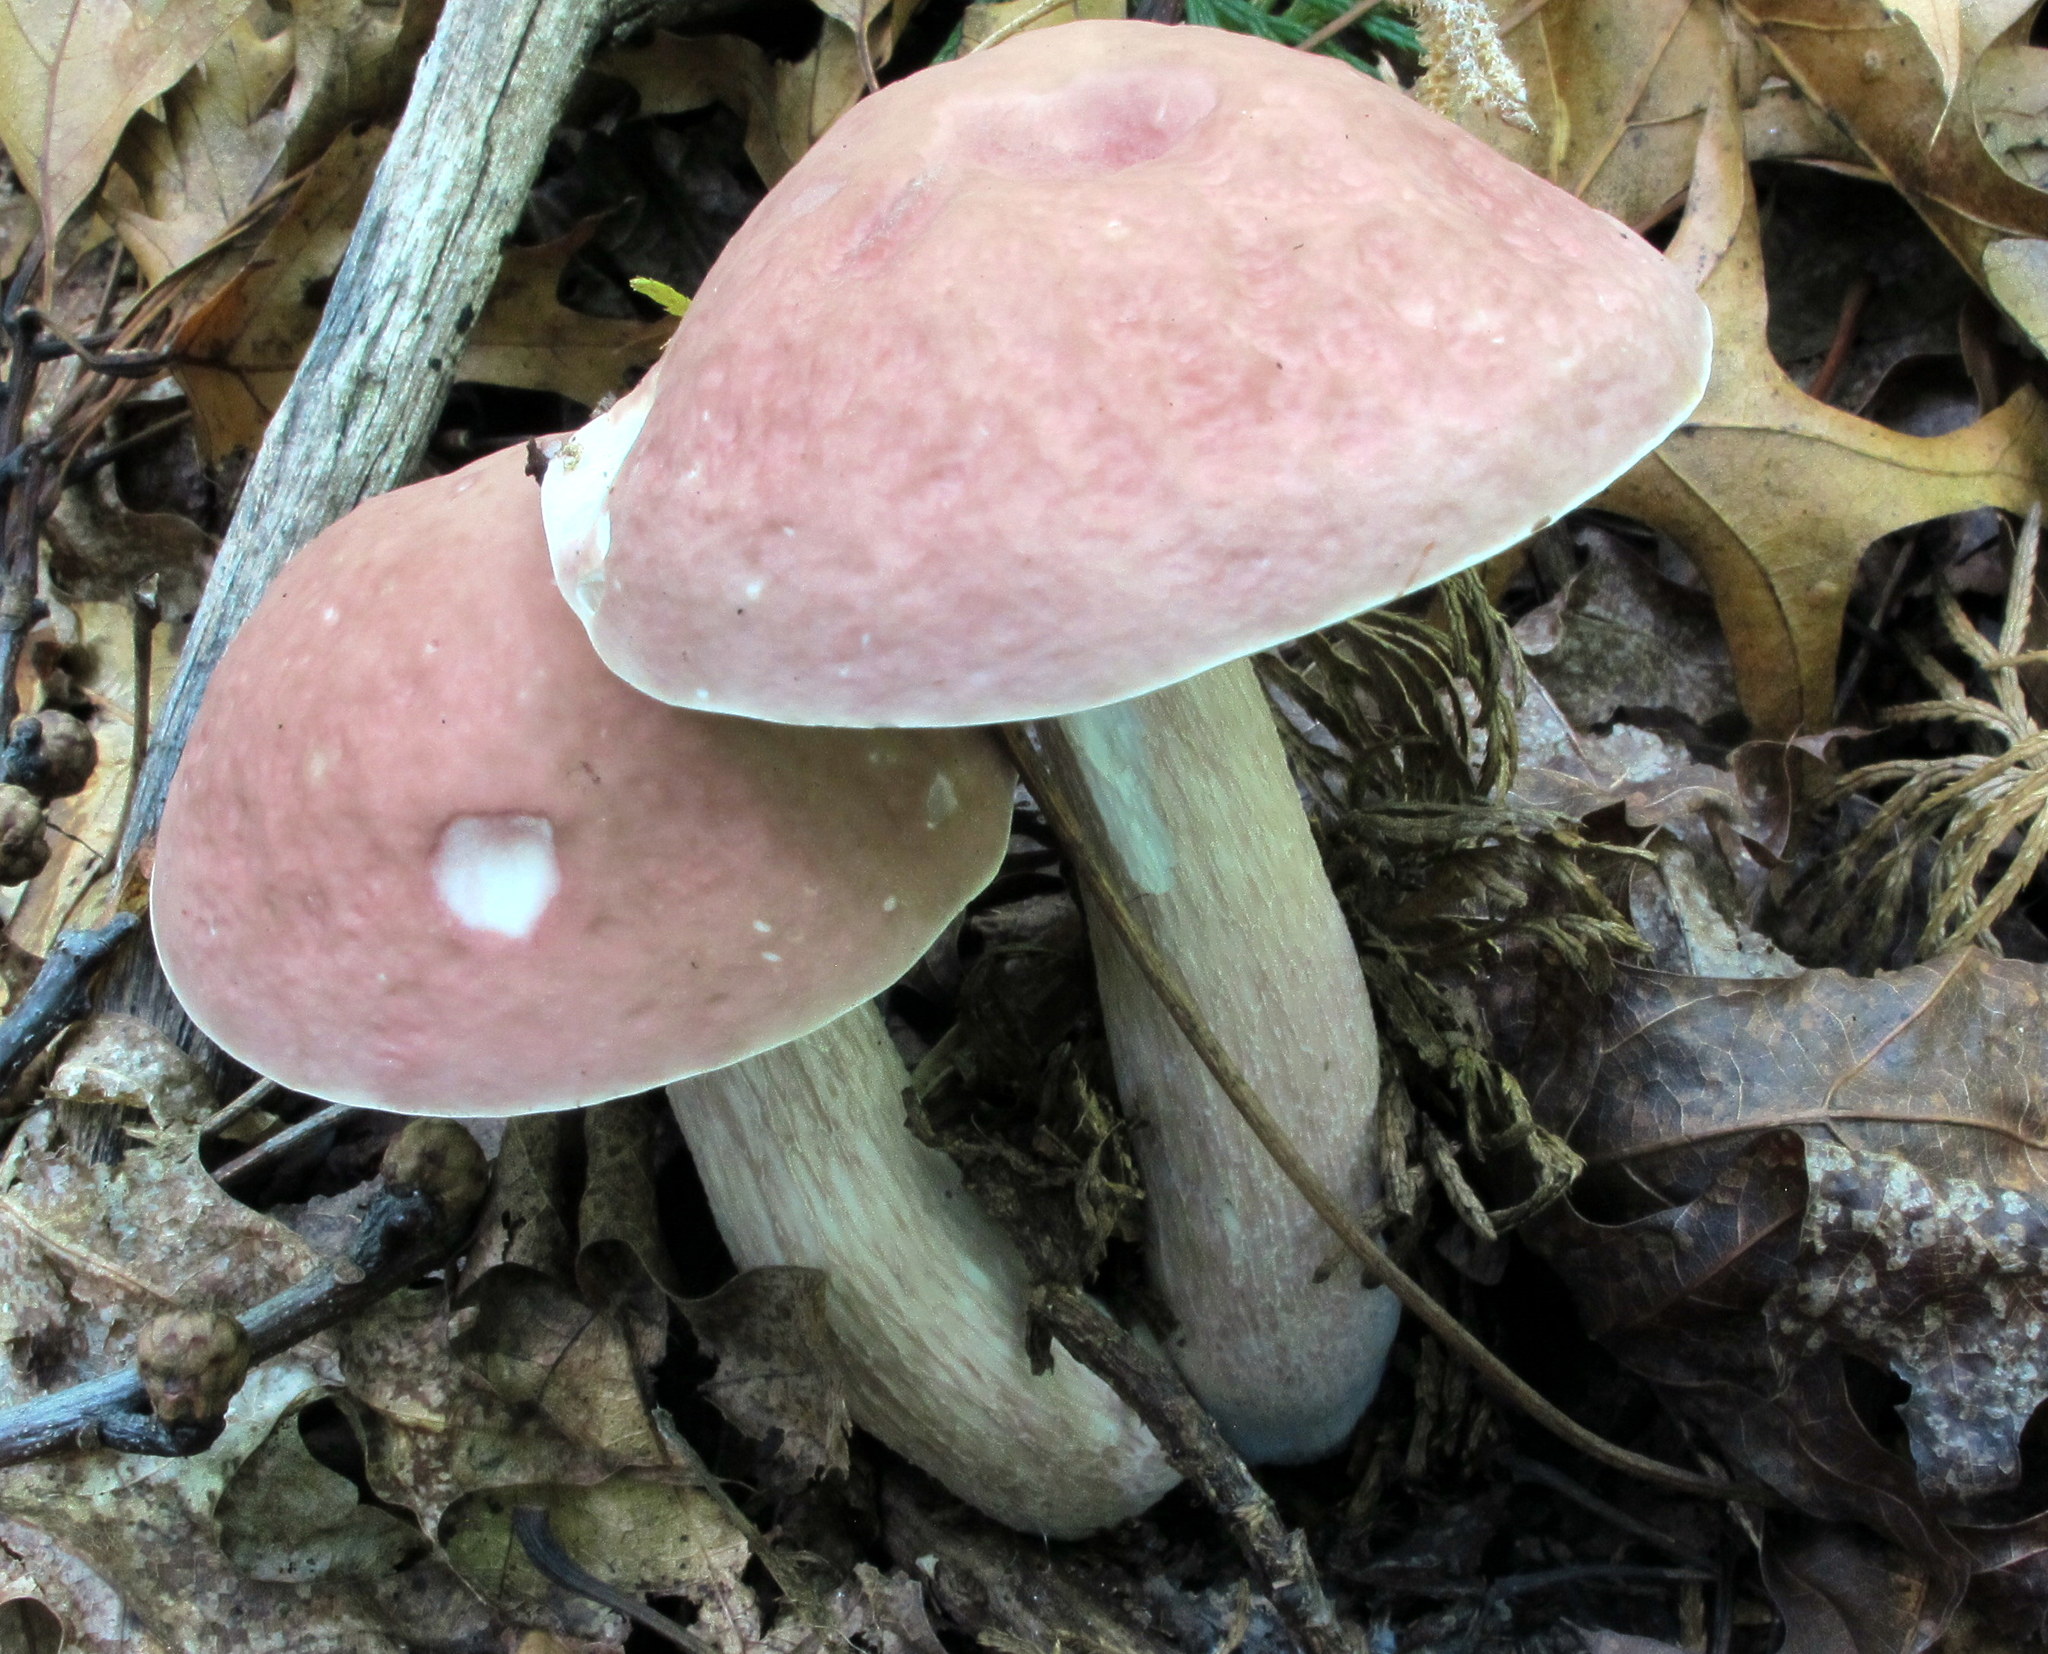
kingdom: Fungi
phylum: Basidiomycota
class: Agaricomycetes
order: Boletales
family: Boletaceae
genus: Xanthoconium
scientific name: Xanthoconium separans
